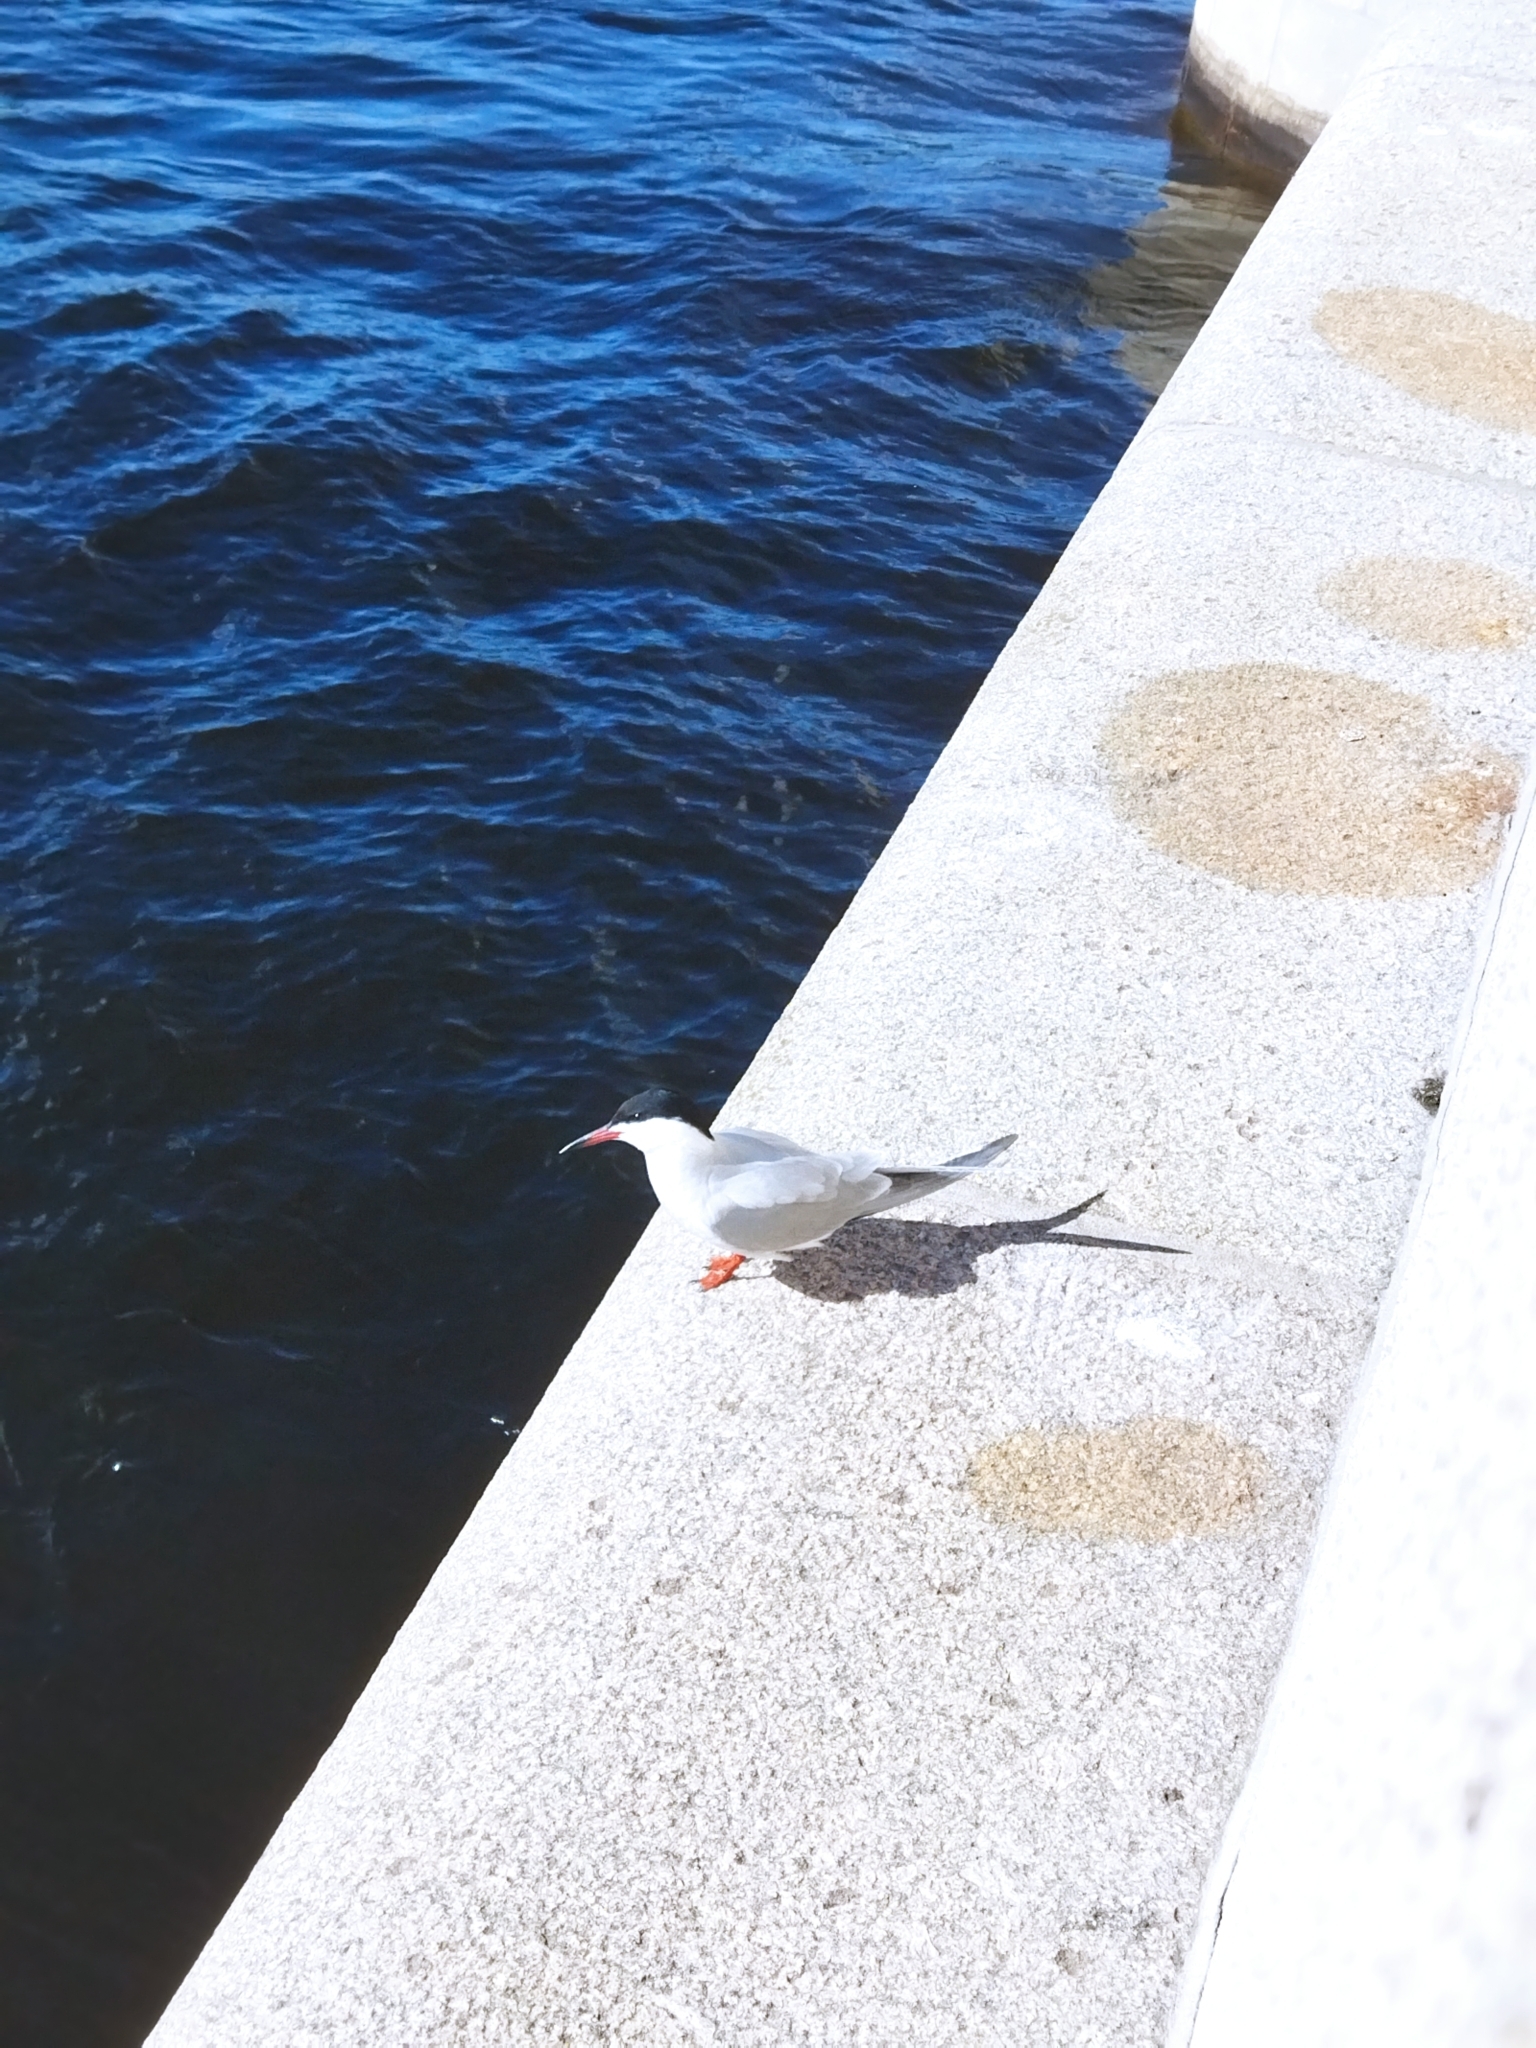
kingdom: Animalia
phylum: Chordata
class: Aves
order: Charadriiformes
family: Laridae
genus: Sterna
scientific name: Sterna hirundo
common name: Common tern
